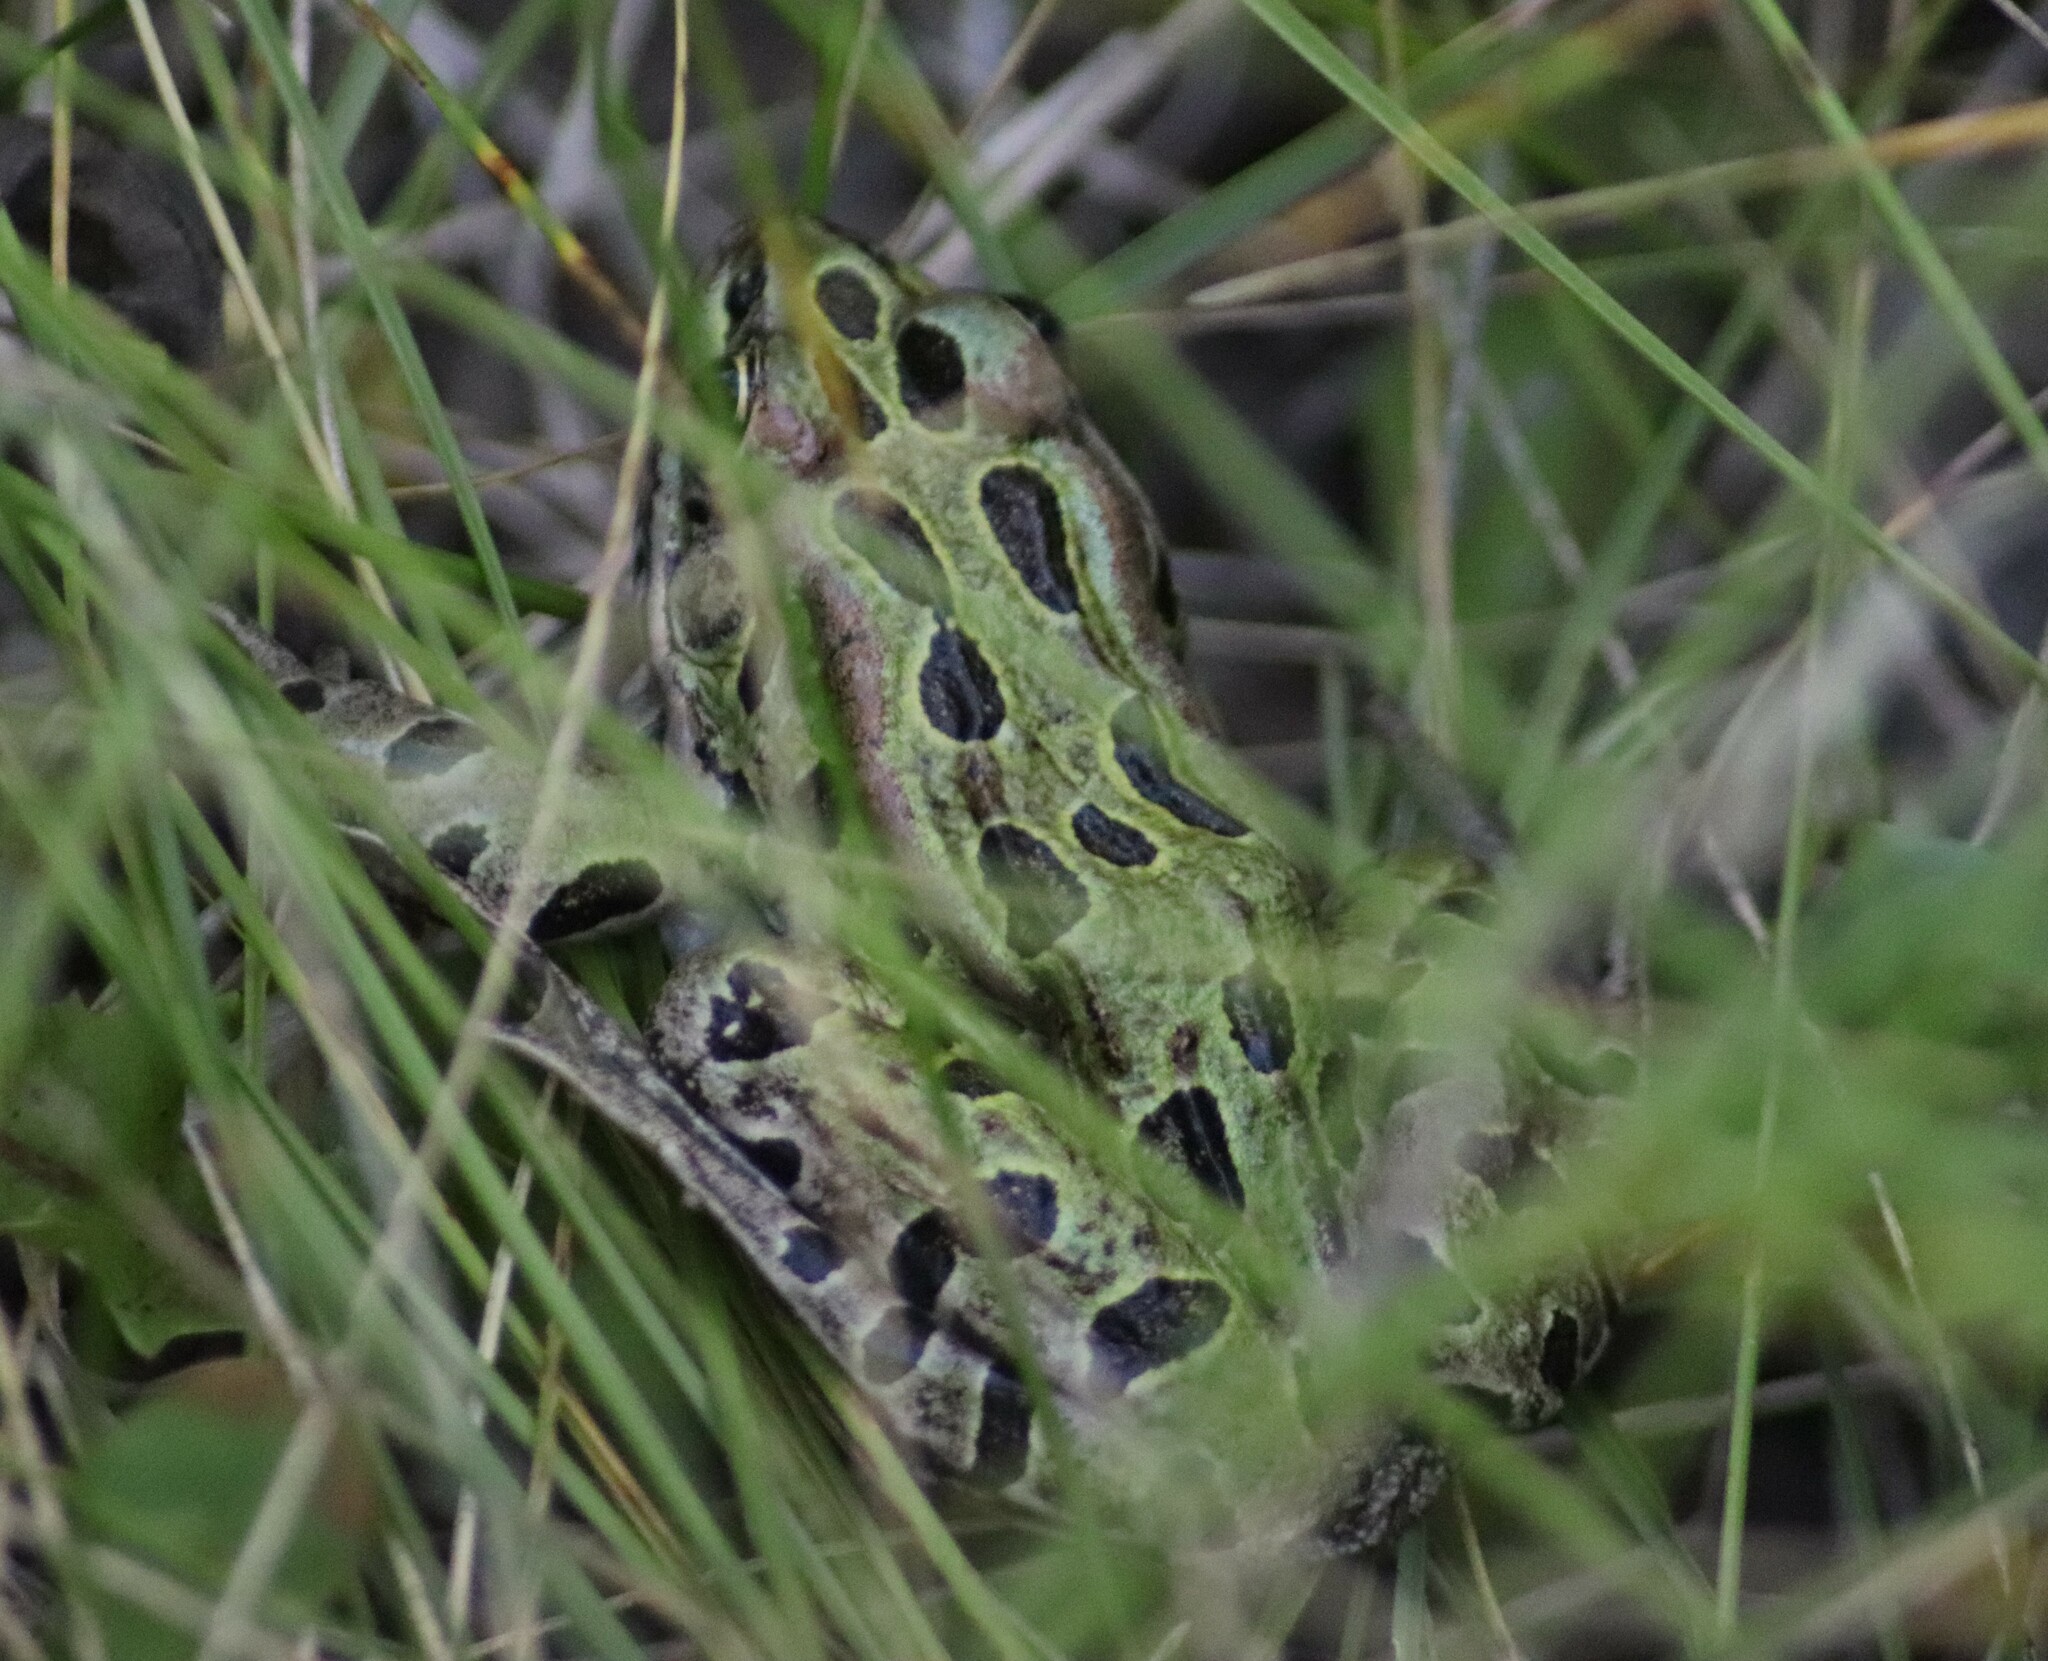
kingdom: Animalia
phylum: Chordata
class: Amphibia
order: Anura
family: Ranidae
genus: Lithobates
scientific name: Lithobates pipiens
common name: Northern leopard frog
